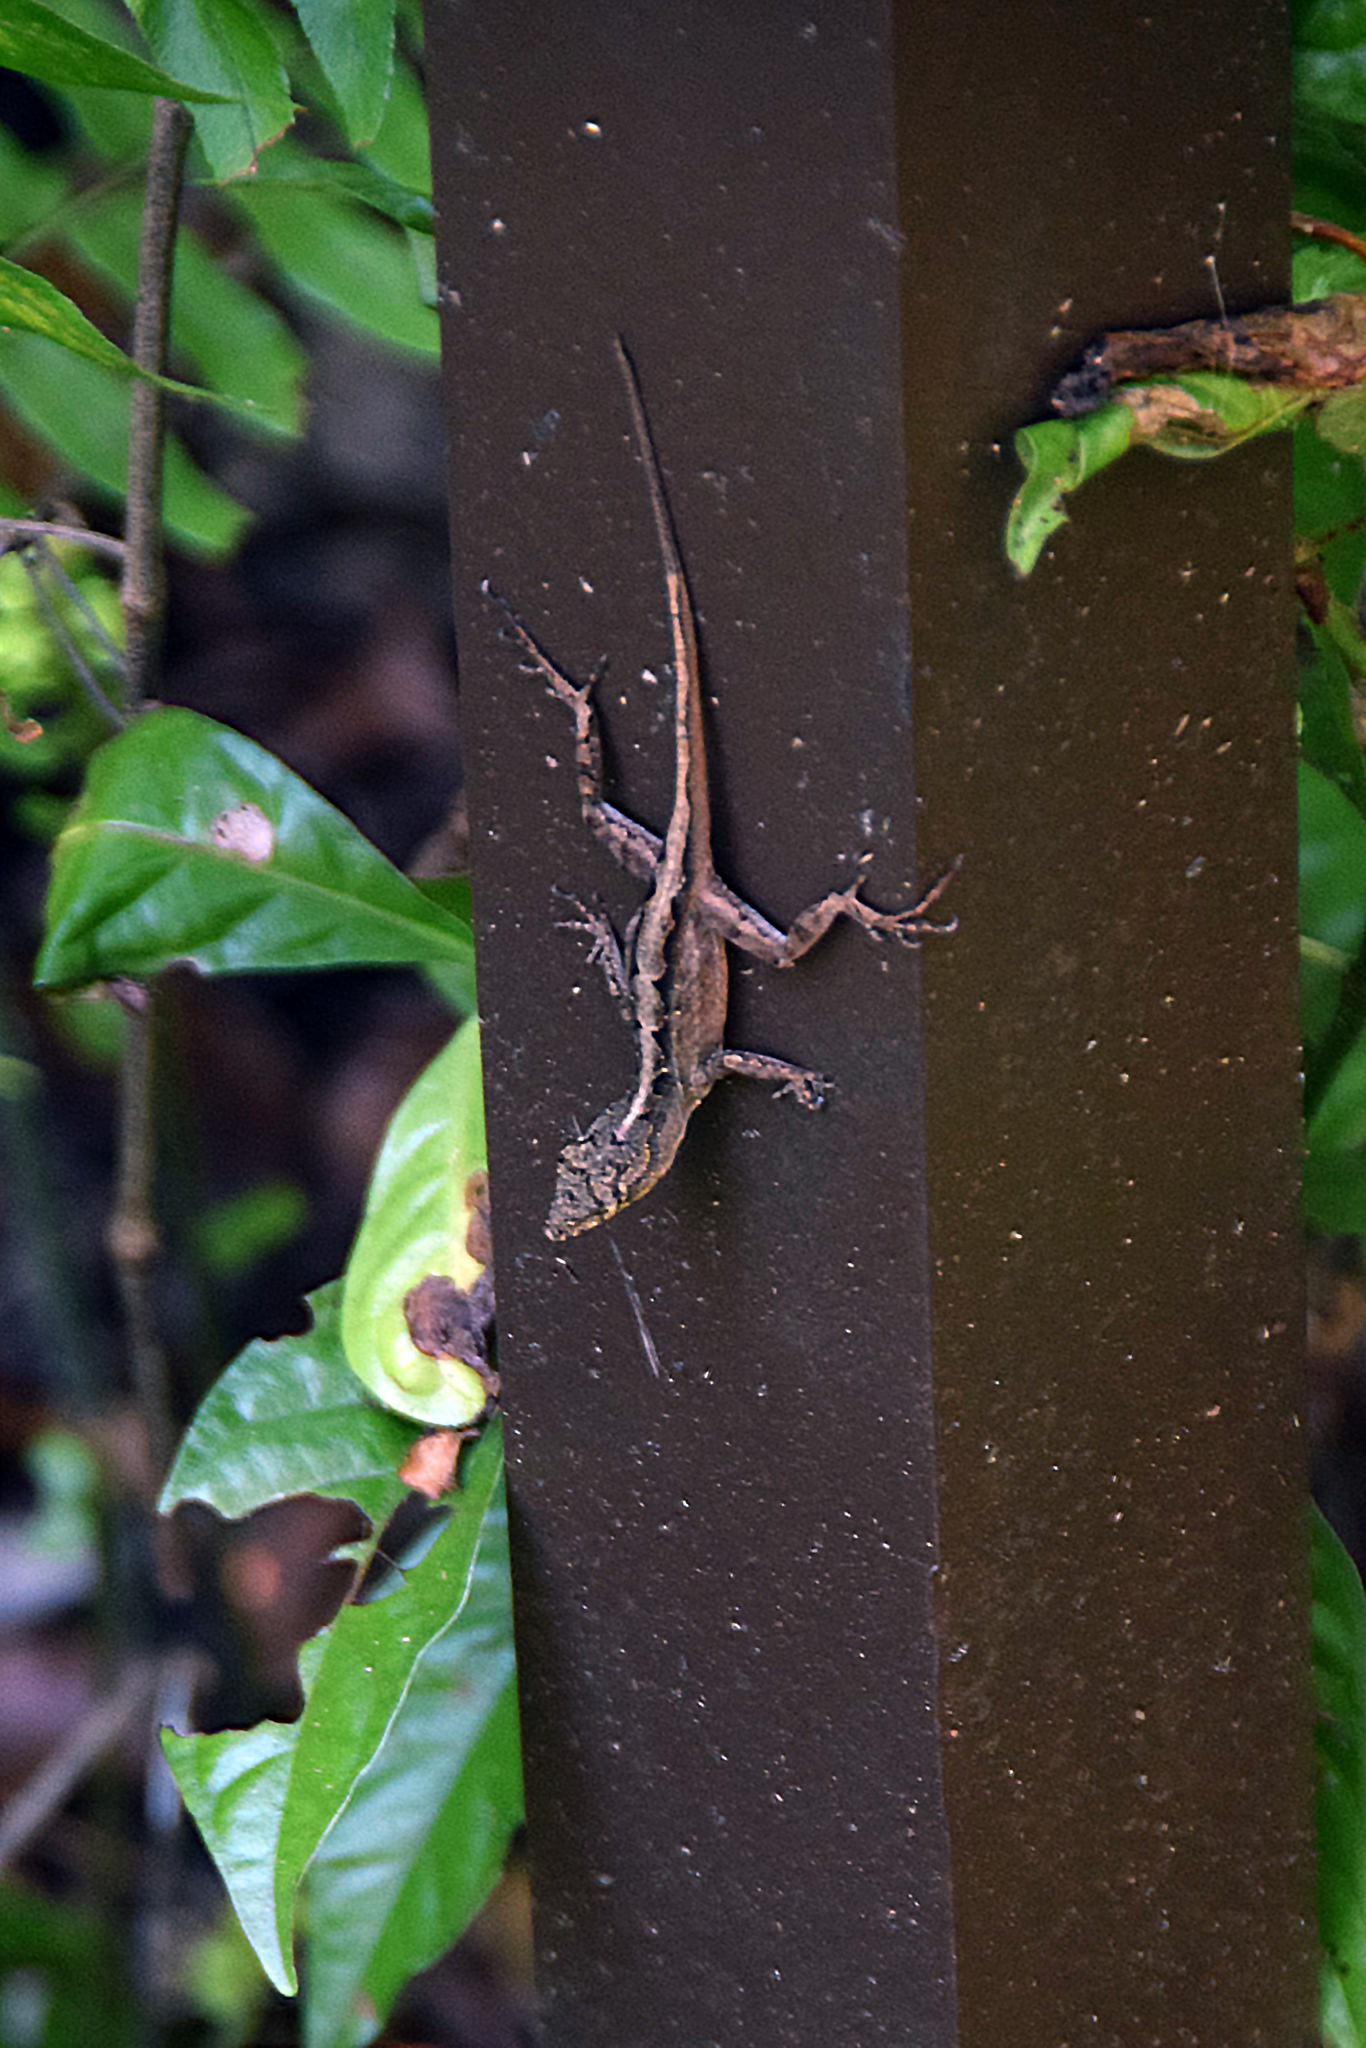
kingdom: Animalia
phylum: Chordata
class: Squamata
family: Dactyloidae
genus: Anolis
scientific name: Anolis sagrei
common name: Brown anole
